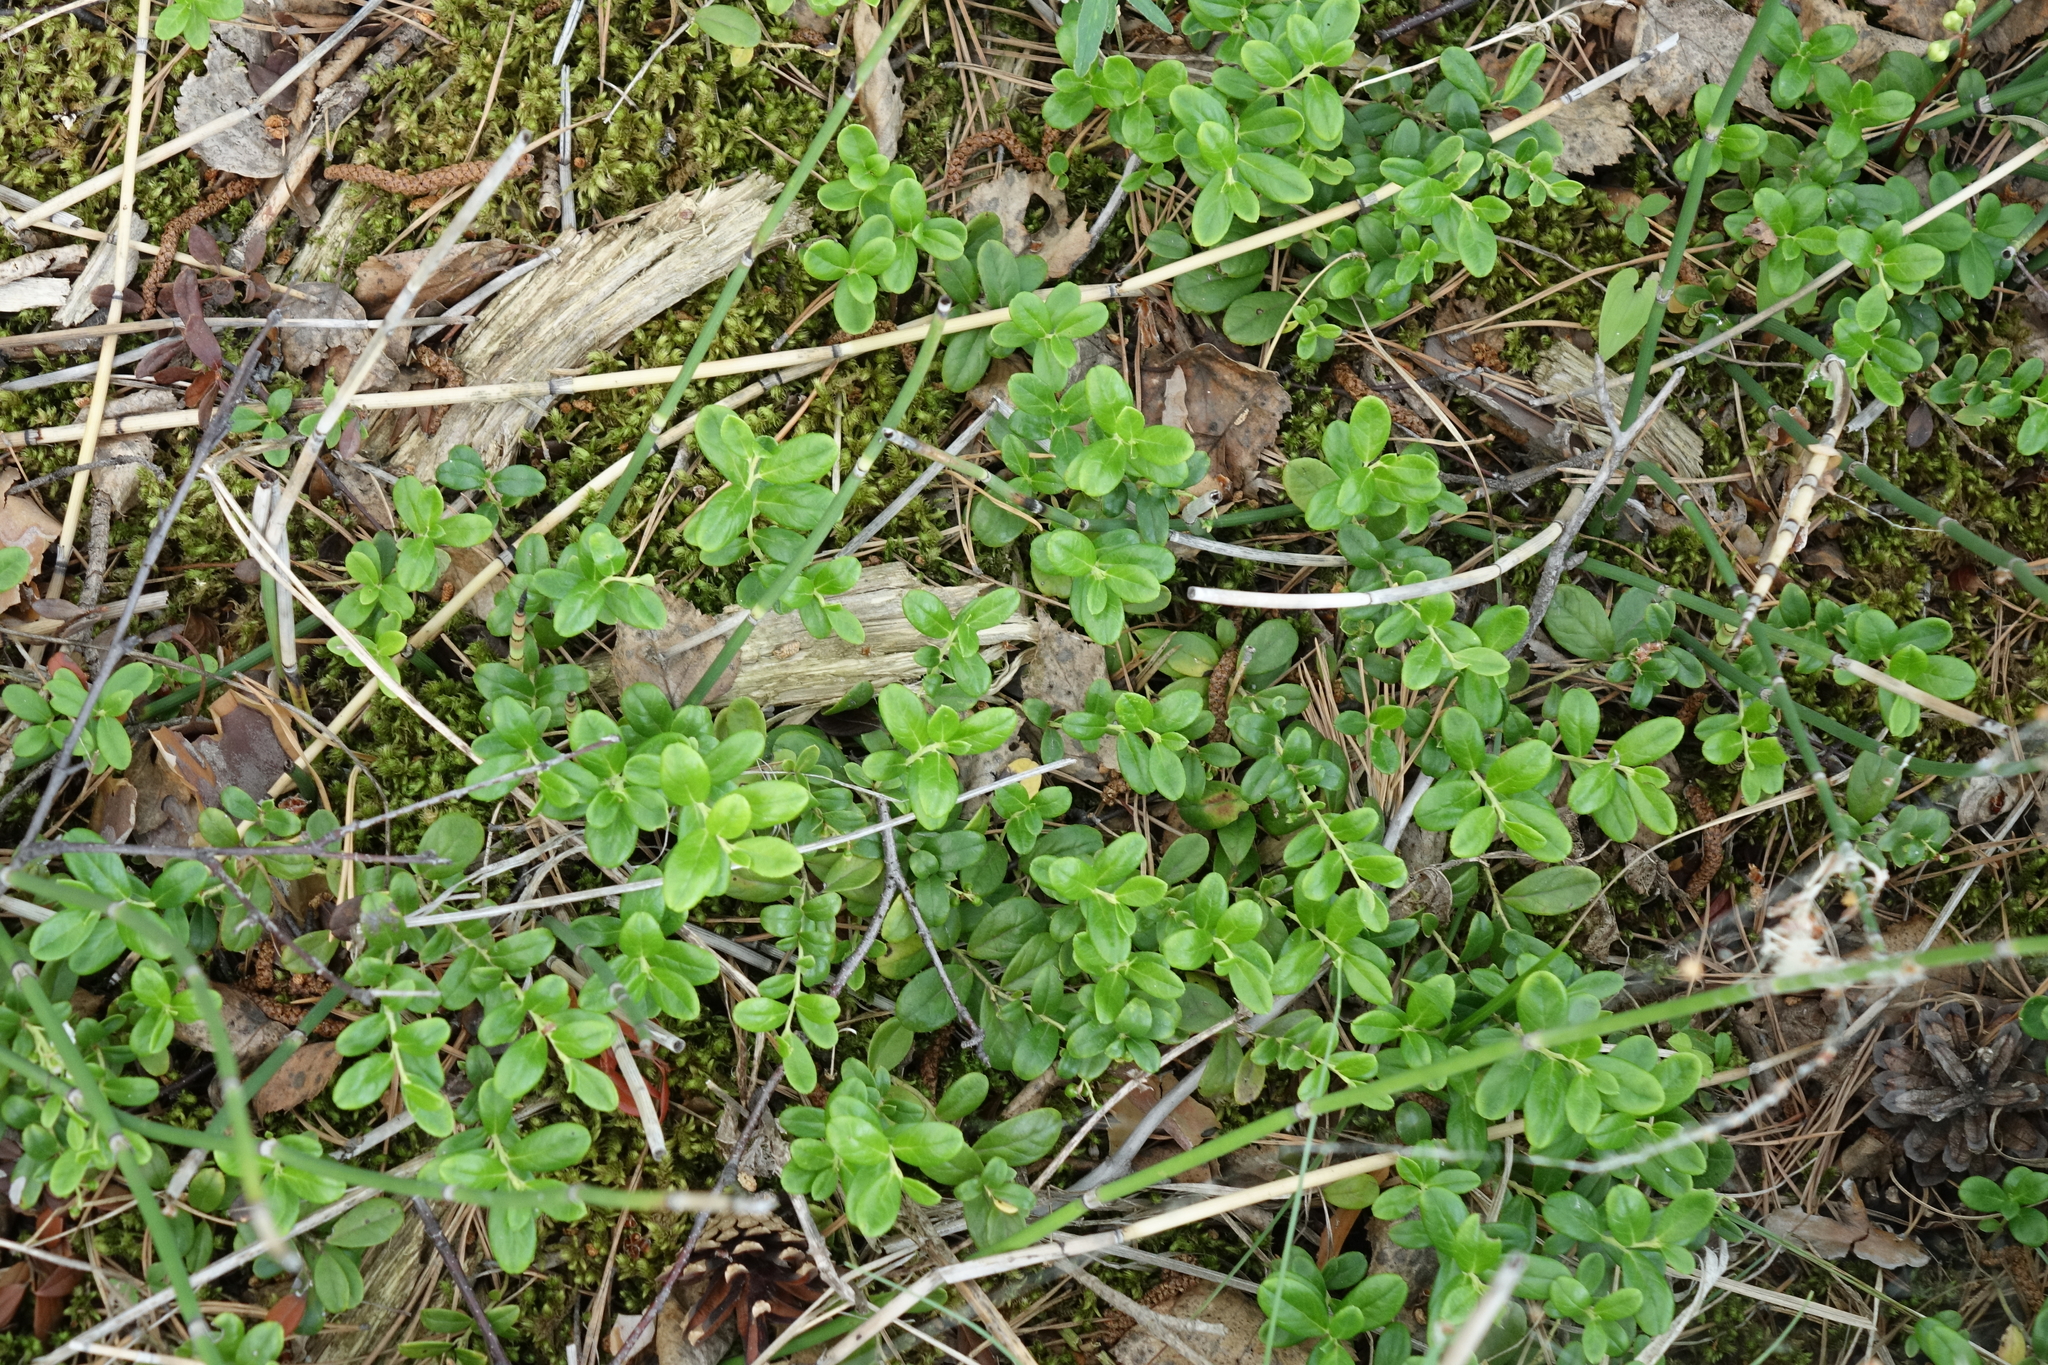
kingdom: Plantae
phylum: Tracheophyta
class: Magnoliopsida
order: Ericales
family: Ericaceae
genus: Vaccinium
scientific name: Vaccinium vitis-idaea
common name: Cowberry
